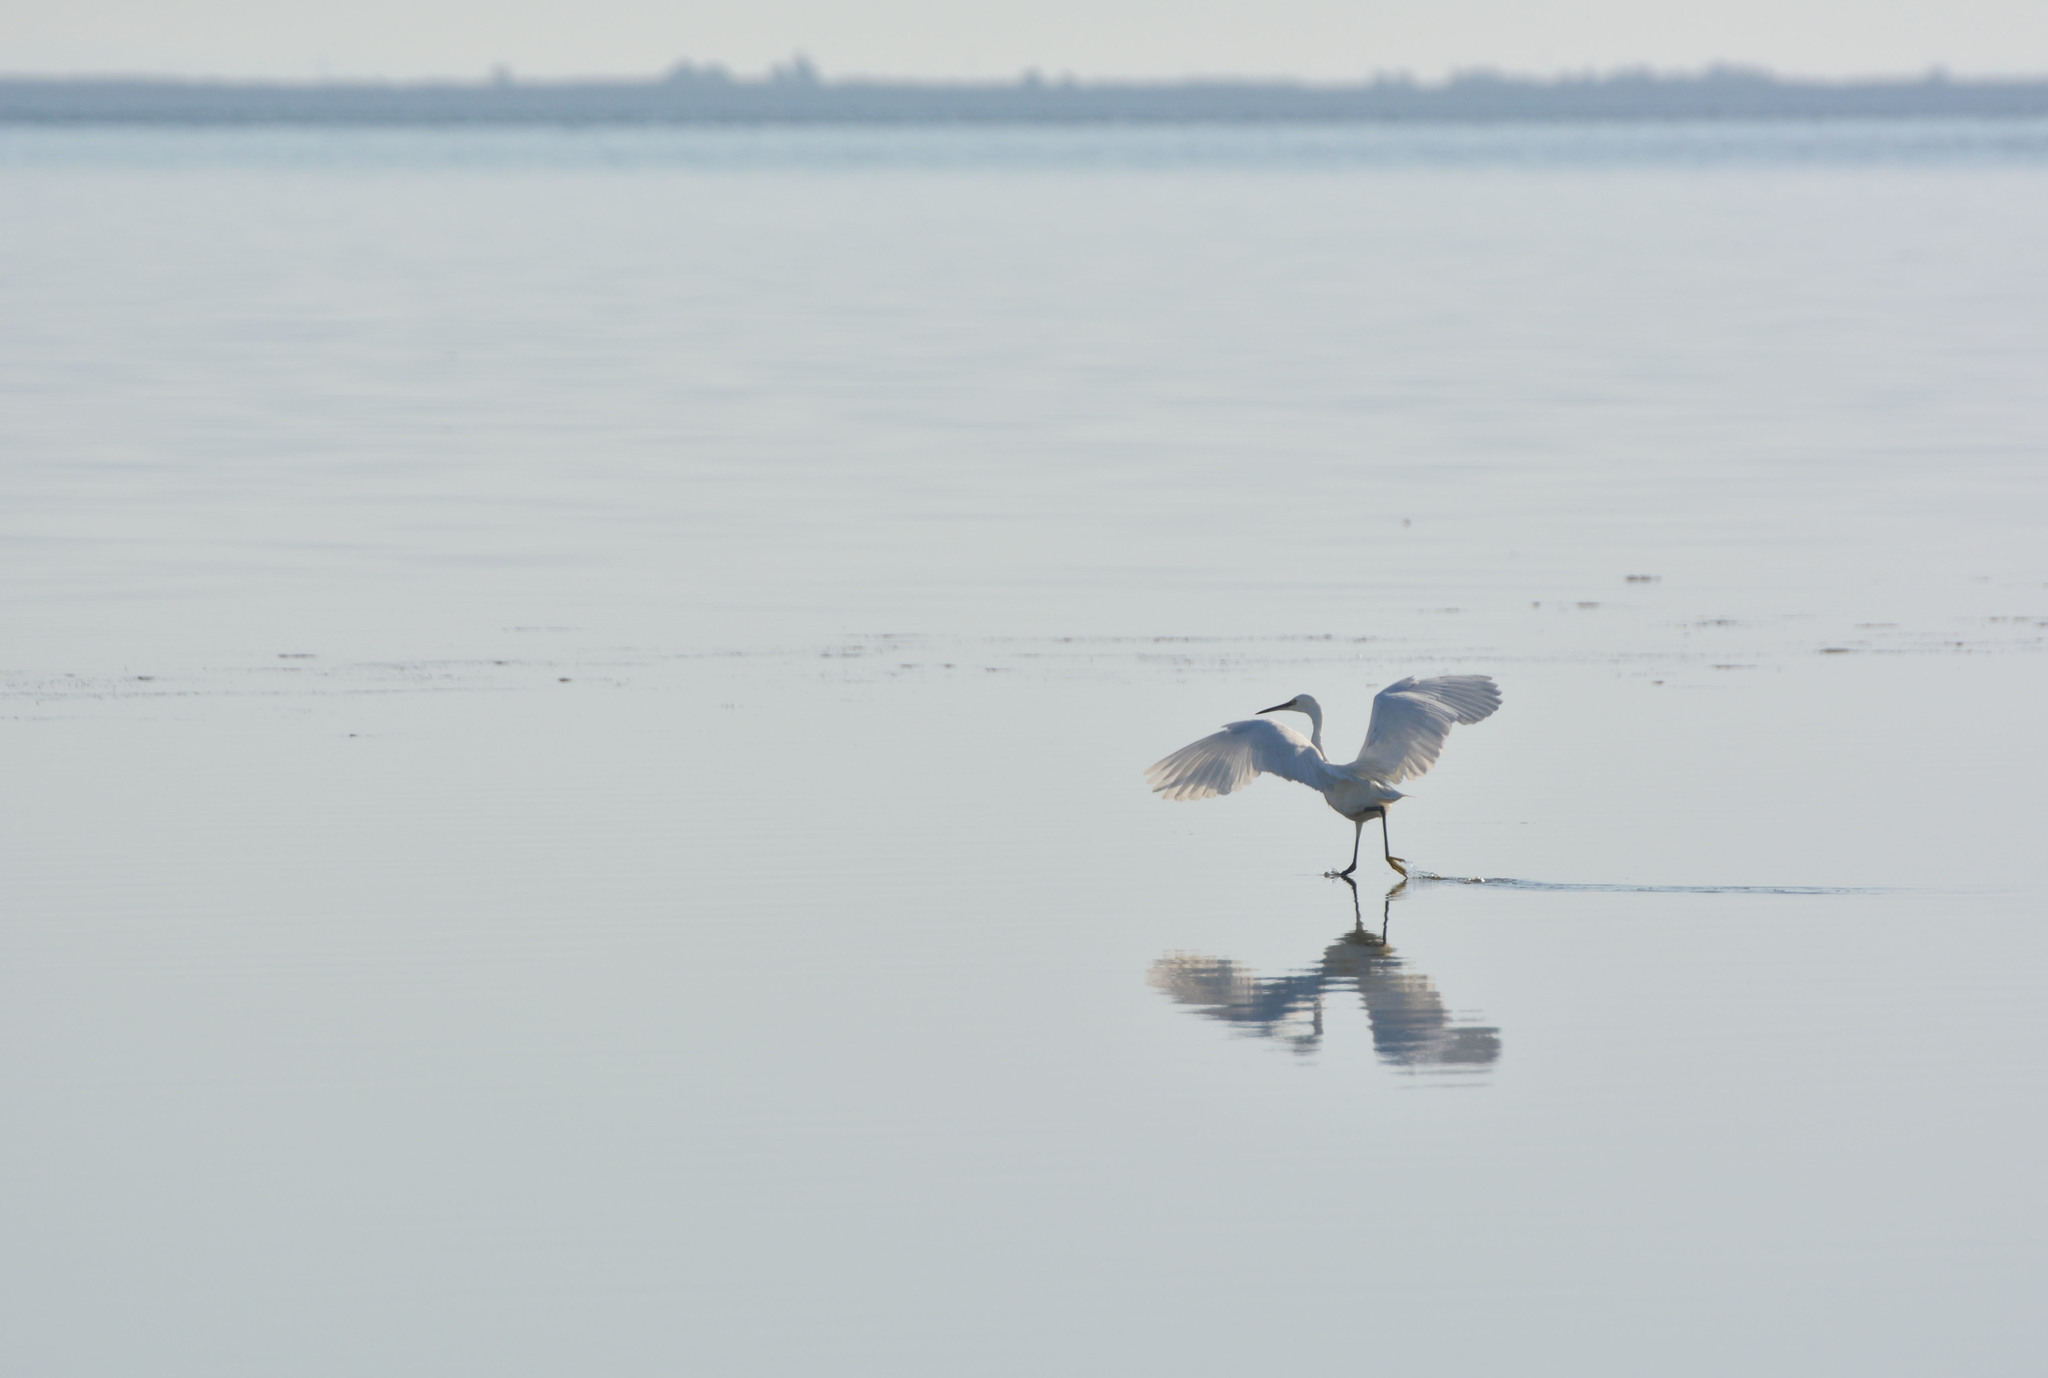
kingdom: Animalia
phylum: Chordata
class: Aves
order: Pelecaniformes
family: Ardeidae
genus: Egretta
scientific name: Egretta garzetta
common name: Little egret
